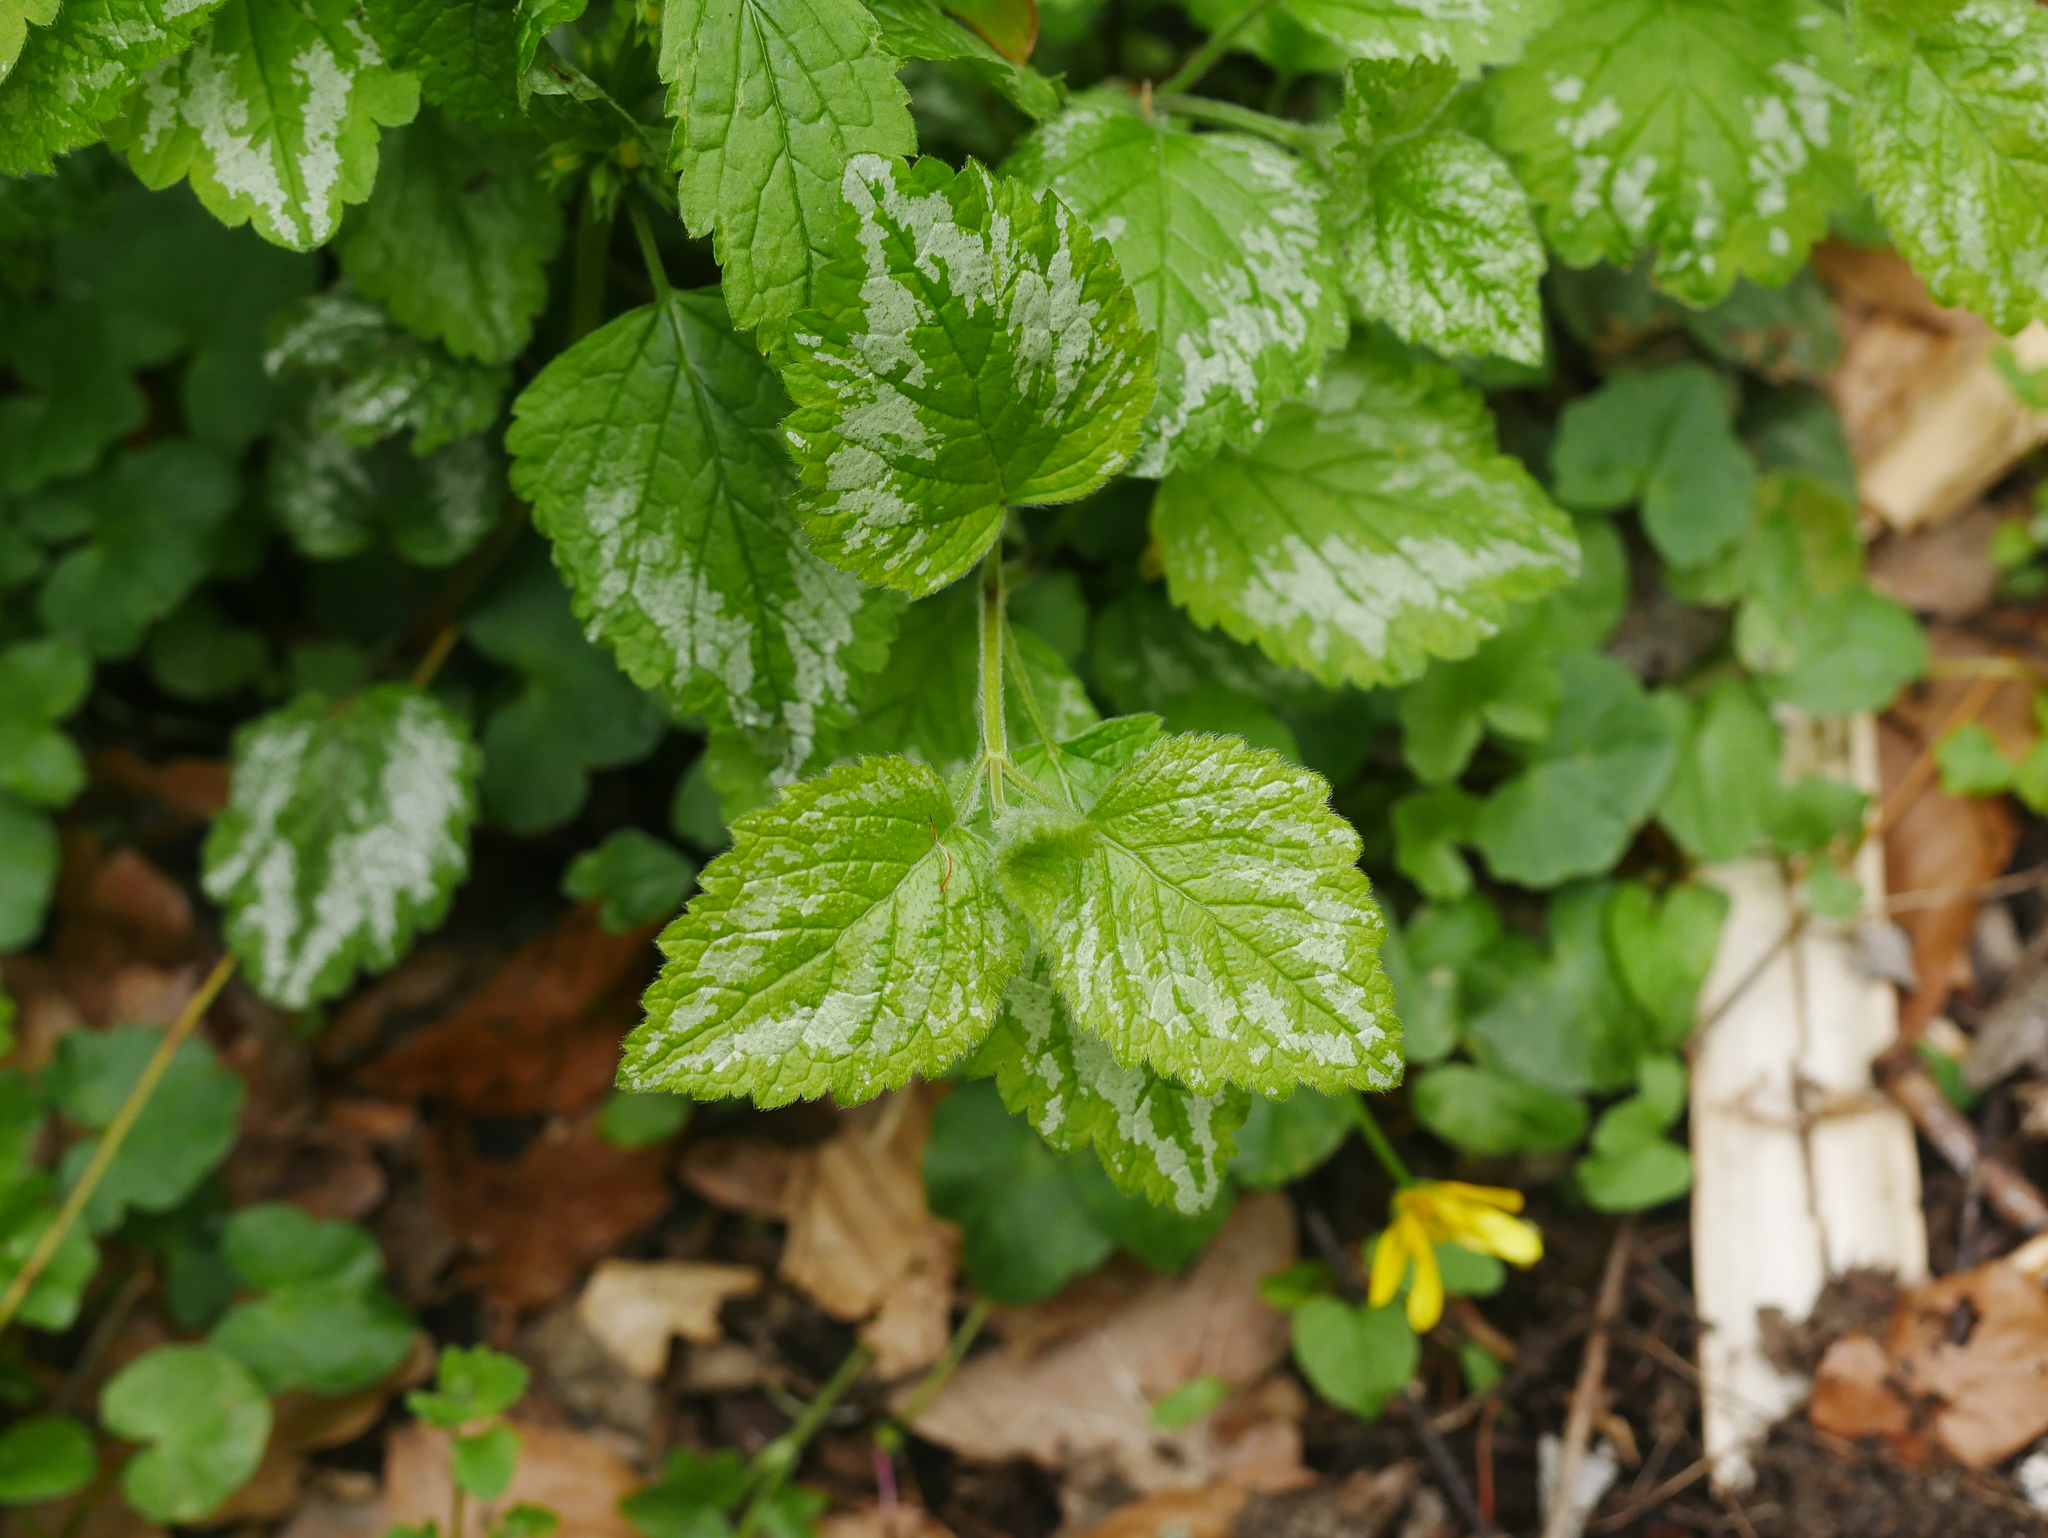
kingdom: Plantae
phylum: Tracheophyta
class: Magnoliopsida
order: Lamiales
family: Lamiaceae
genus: Lamium
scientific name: Lamium galeobdolon
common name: Yellow archangel
